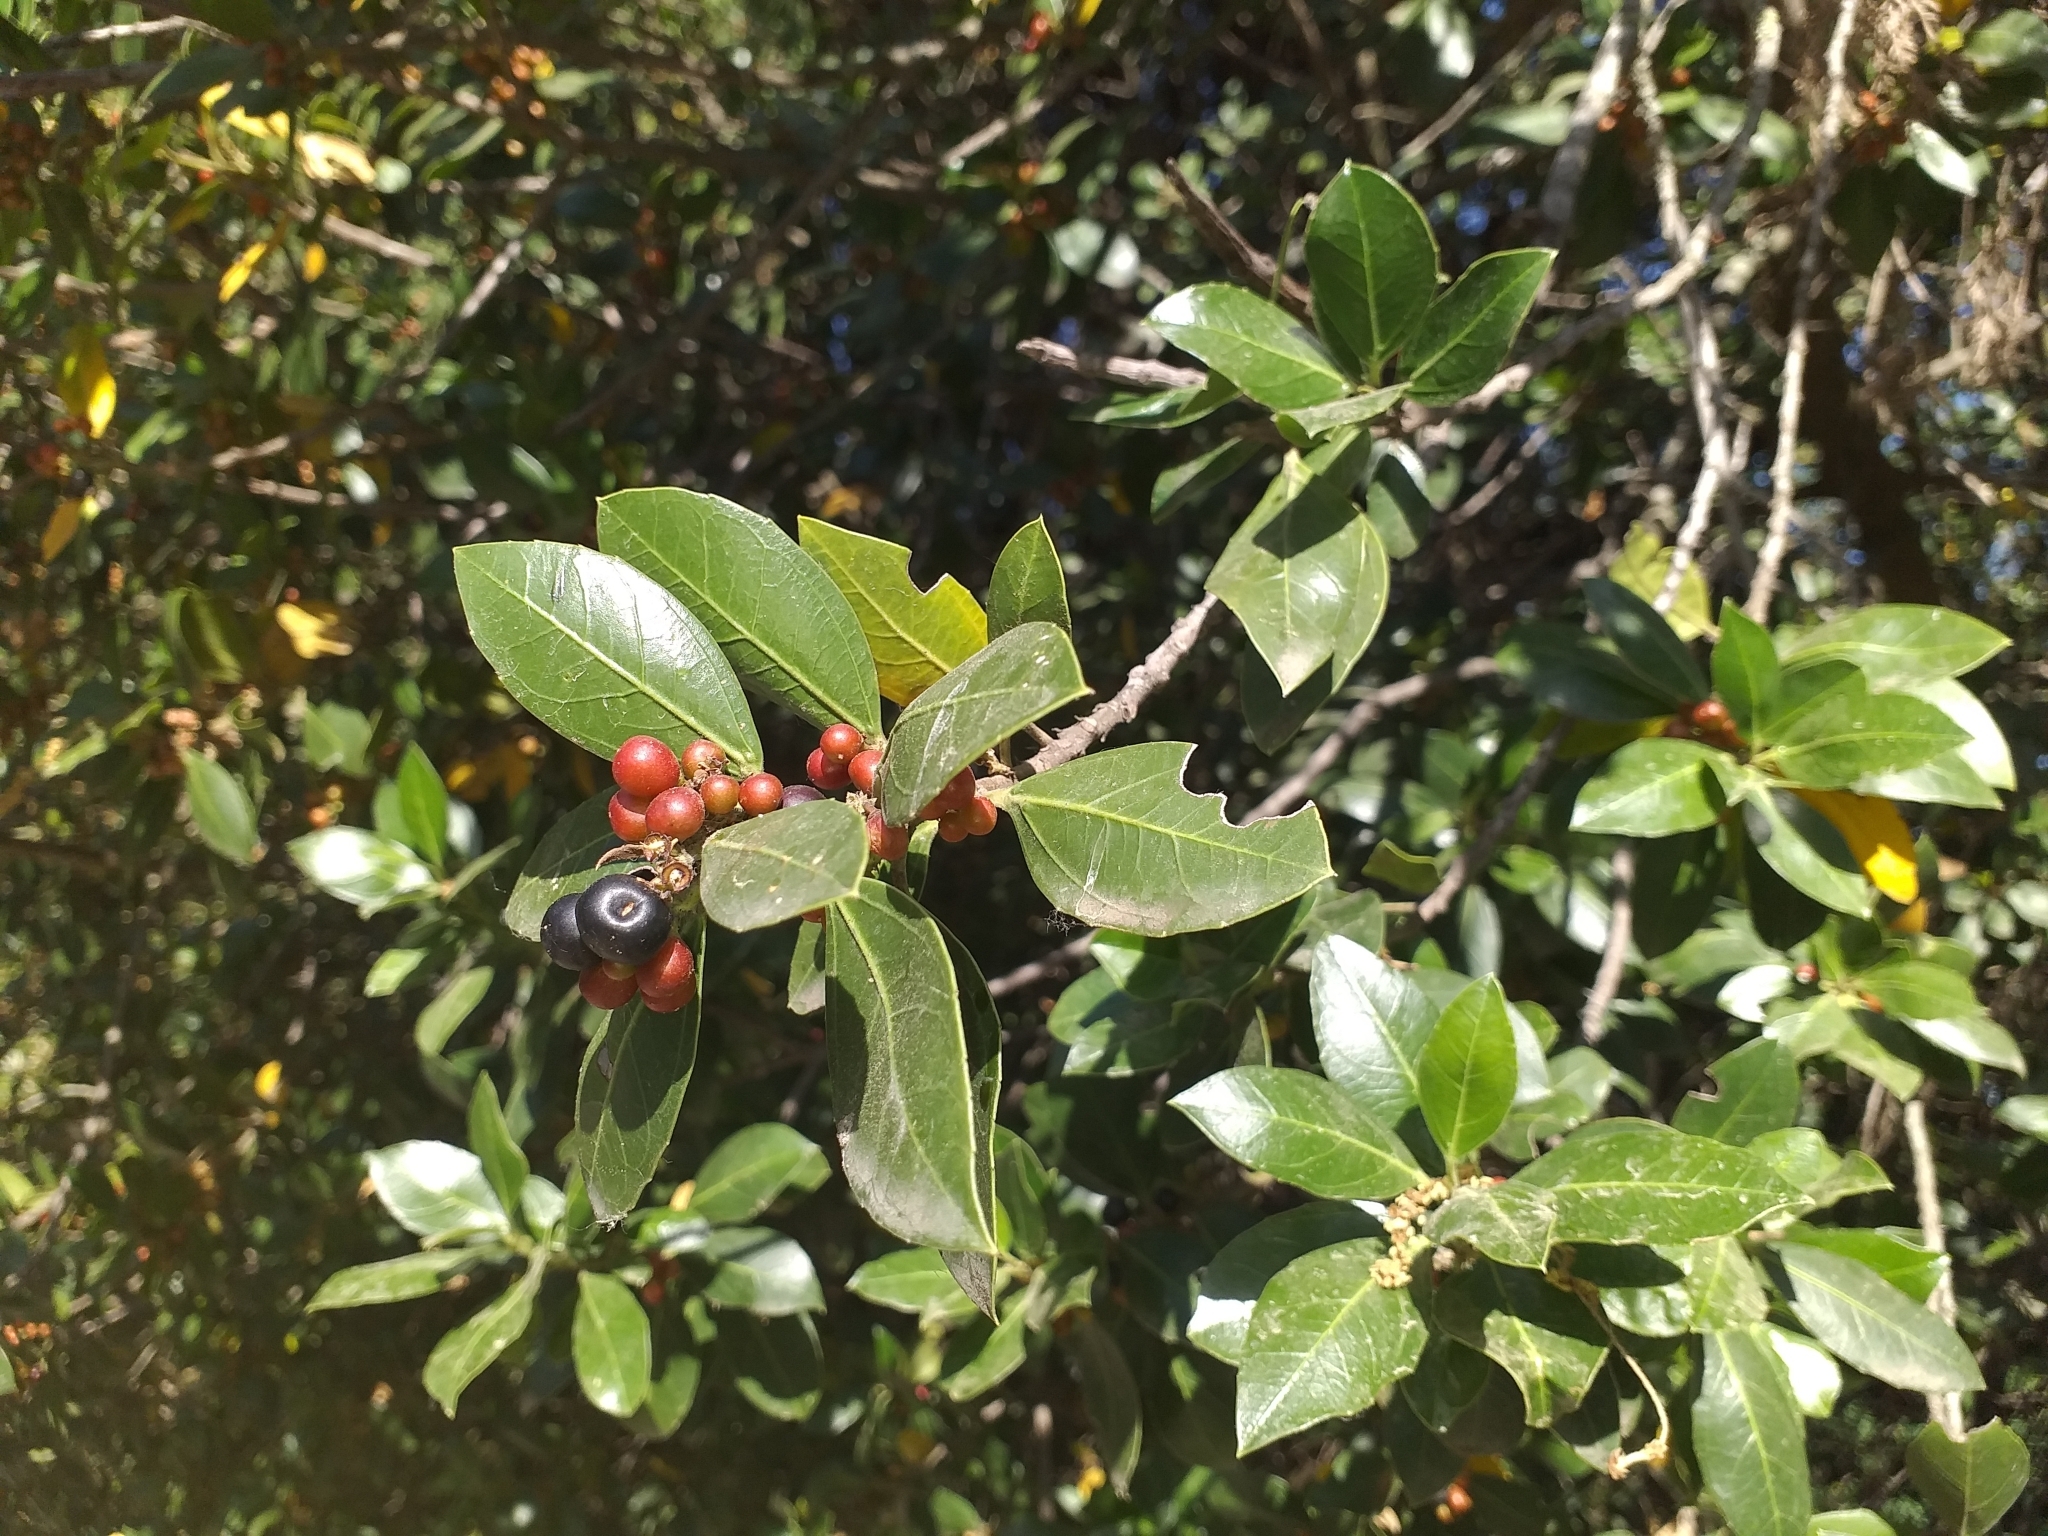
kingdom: Plantae
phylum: Tracheophyta
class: Magnoliopsida
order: Rosales
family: Rhamnaceae
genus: Rhamnus
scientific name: Rhamnus alaternus
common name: Mediterranean buckthorn
